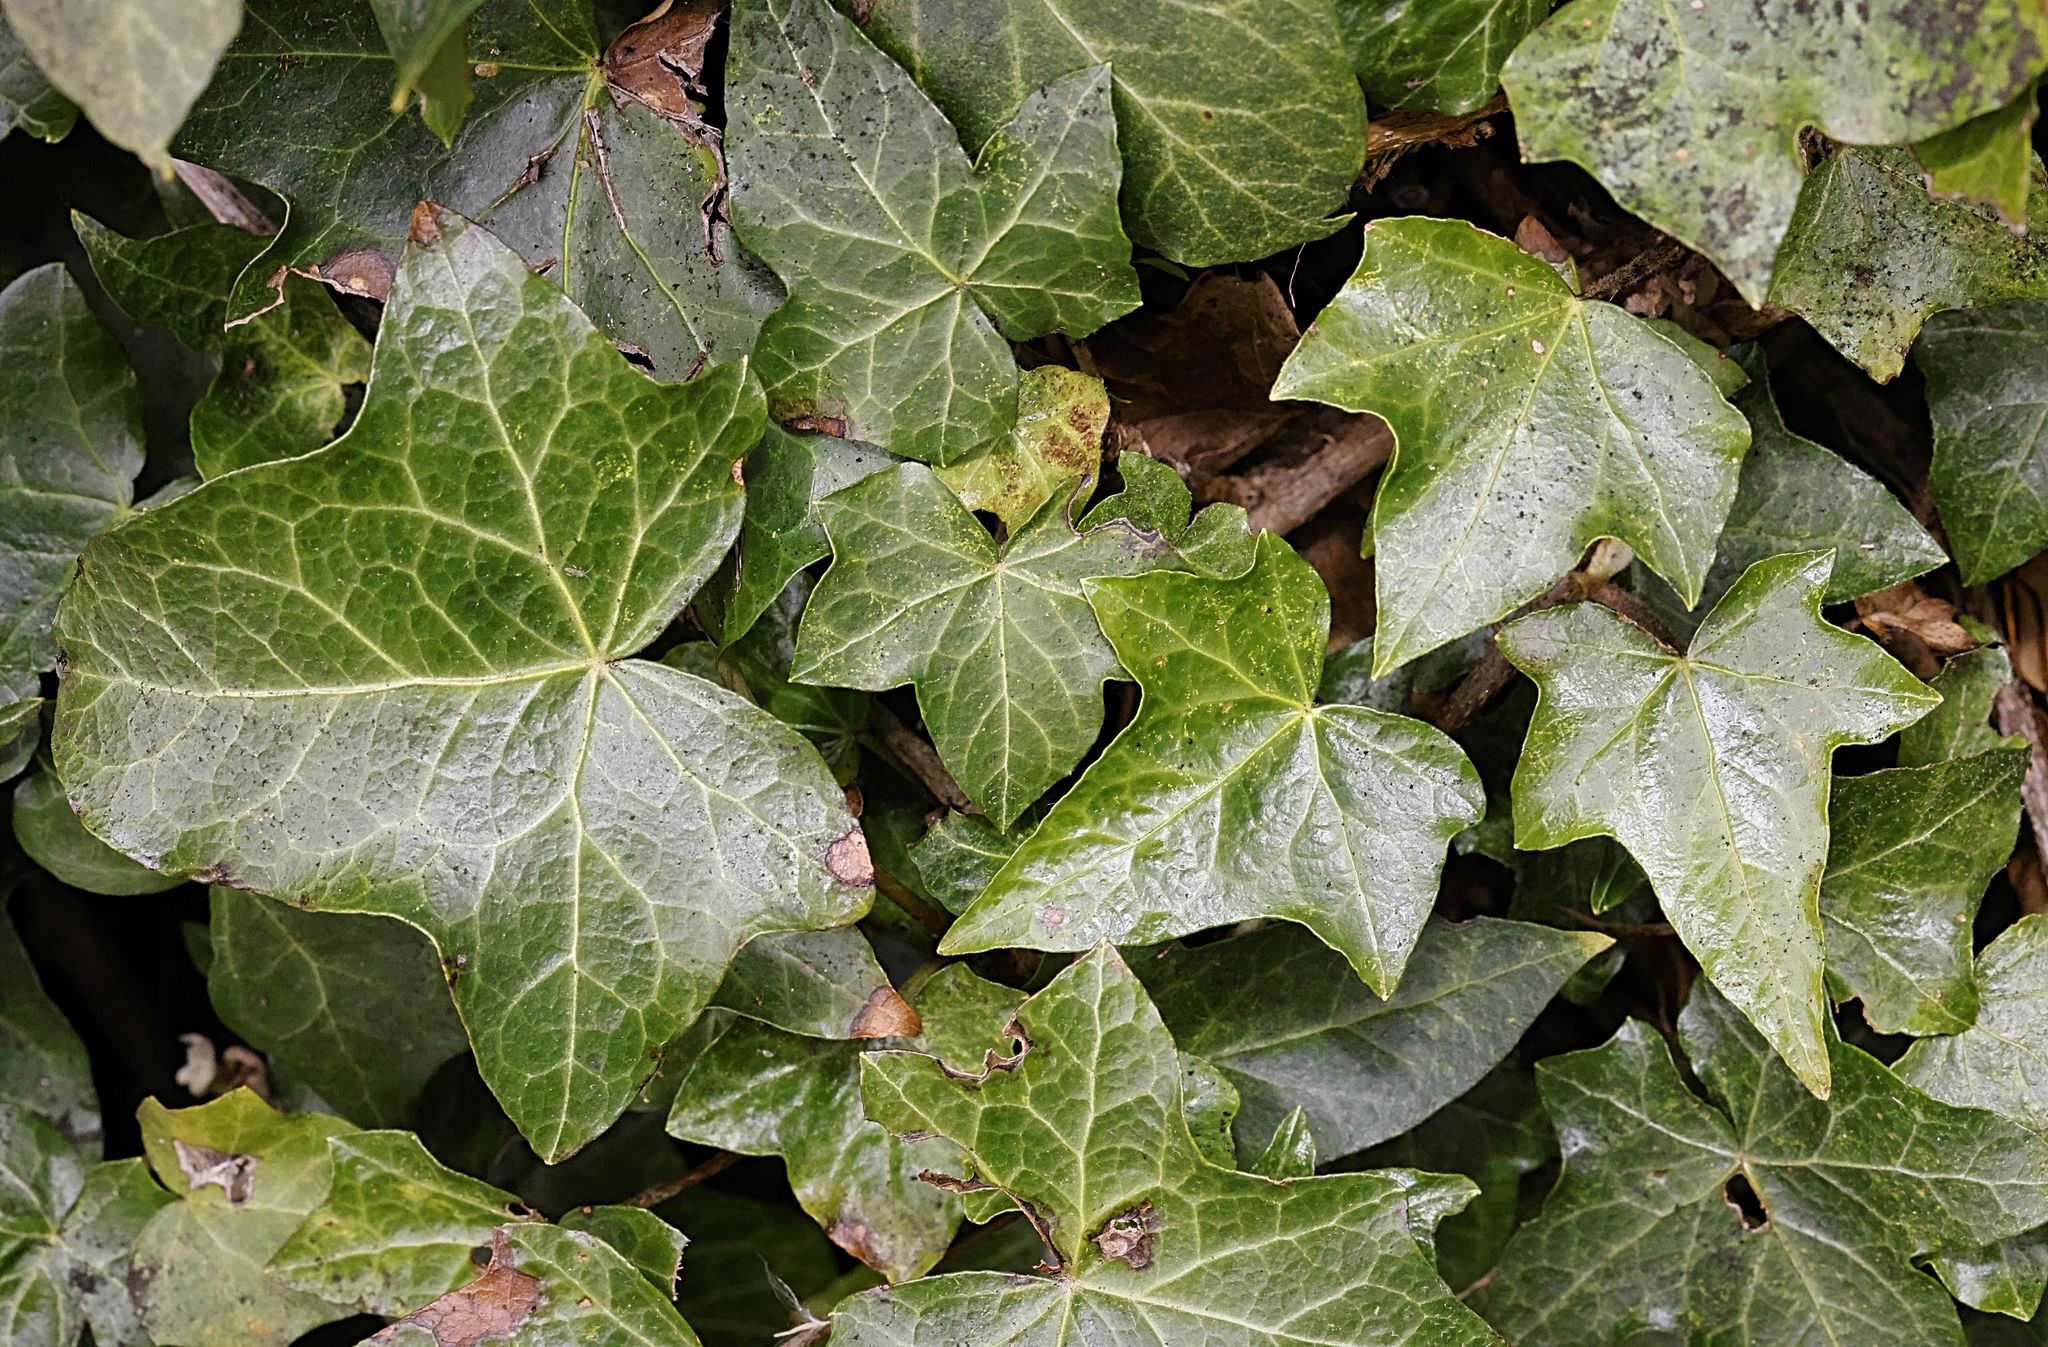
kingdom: Plantae
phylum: Tracheophyta
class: Magnoliopsida
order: Apiales
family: Araliaceae
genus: Hedera
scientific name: Hedera helix
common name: Ivy
